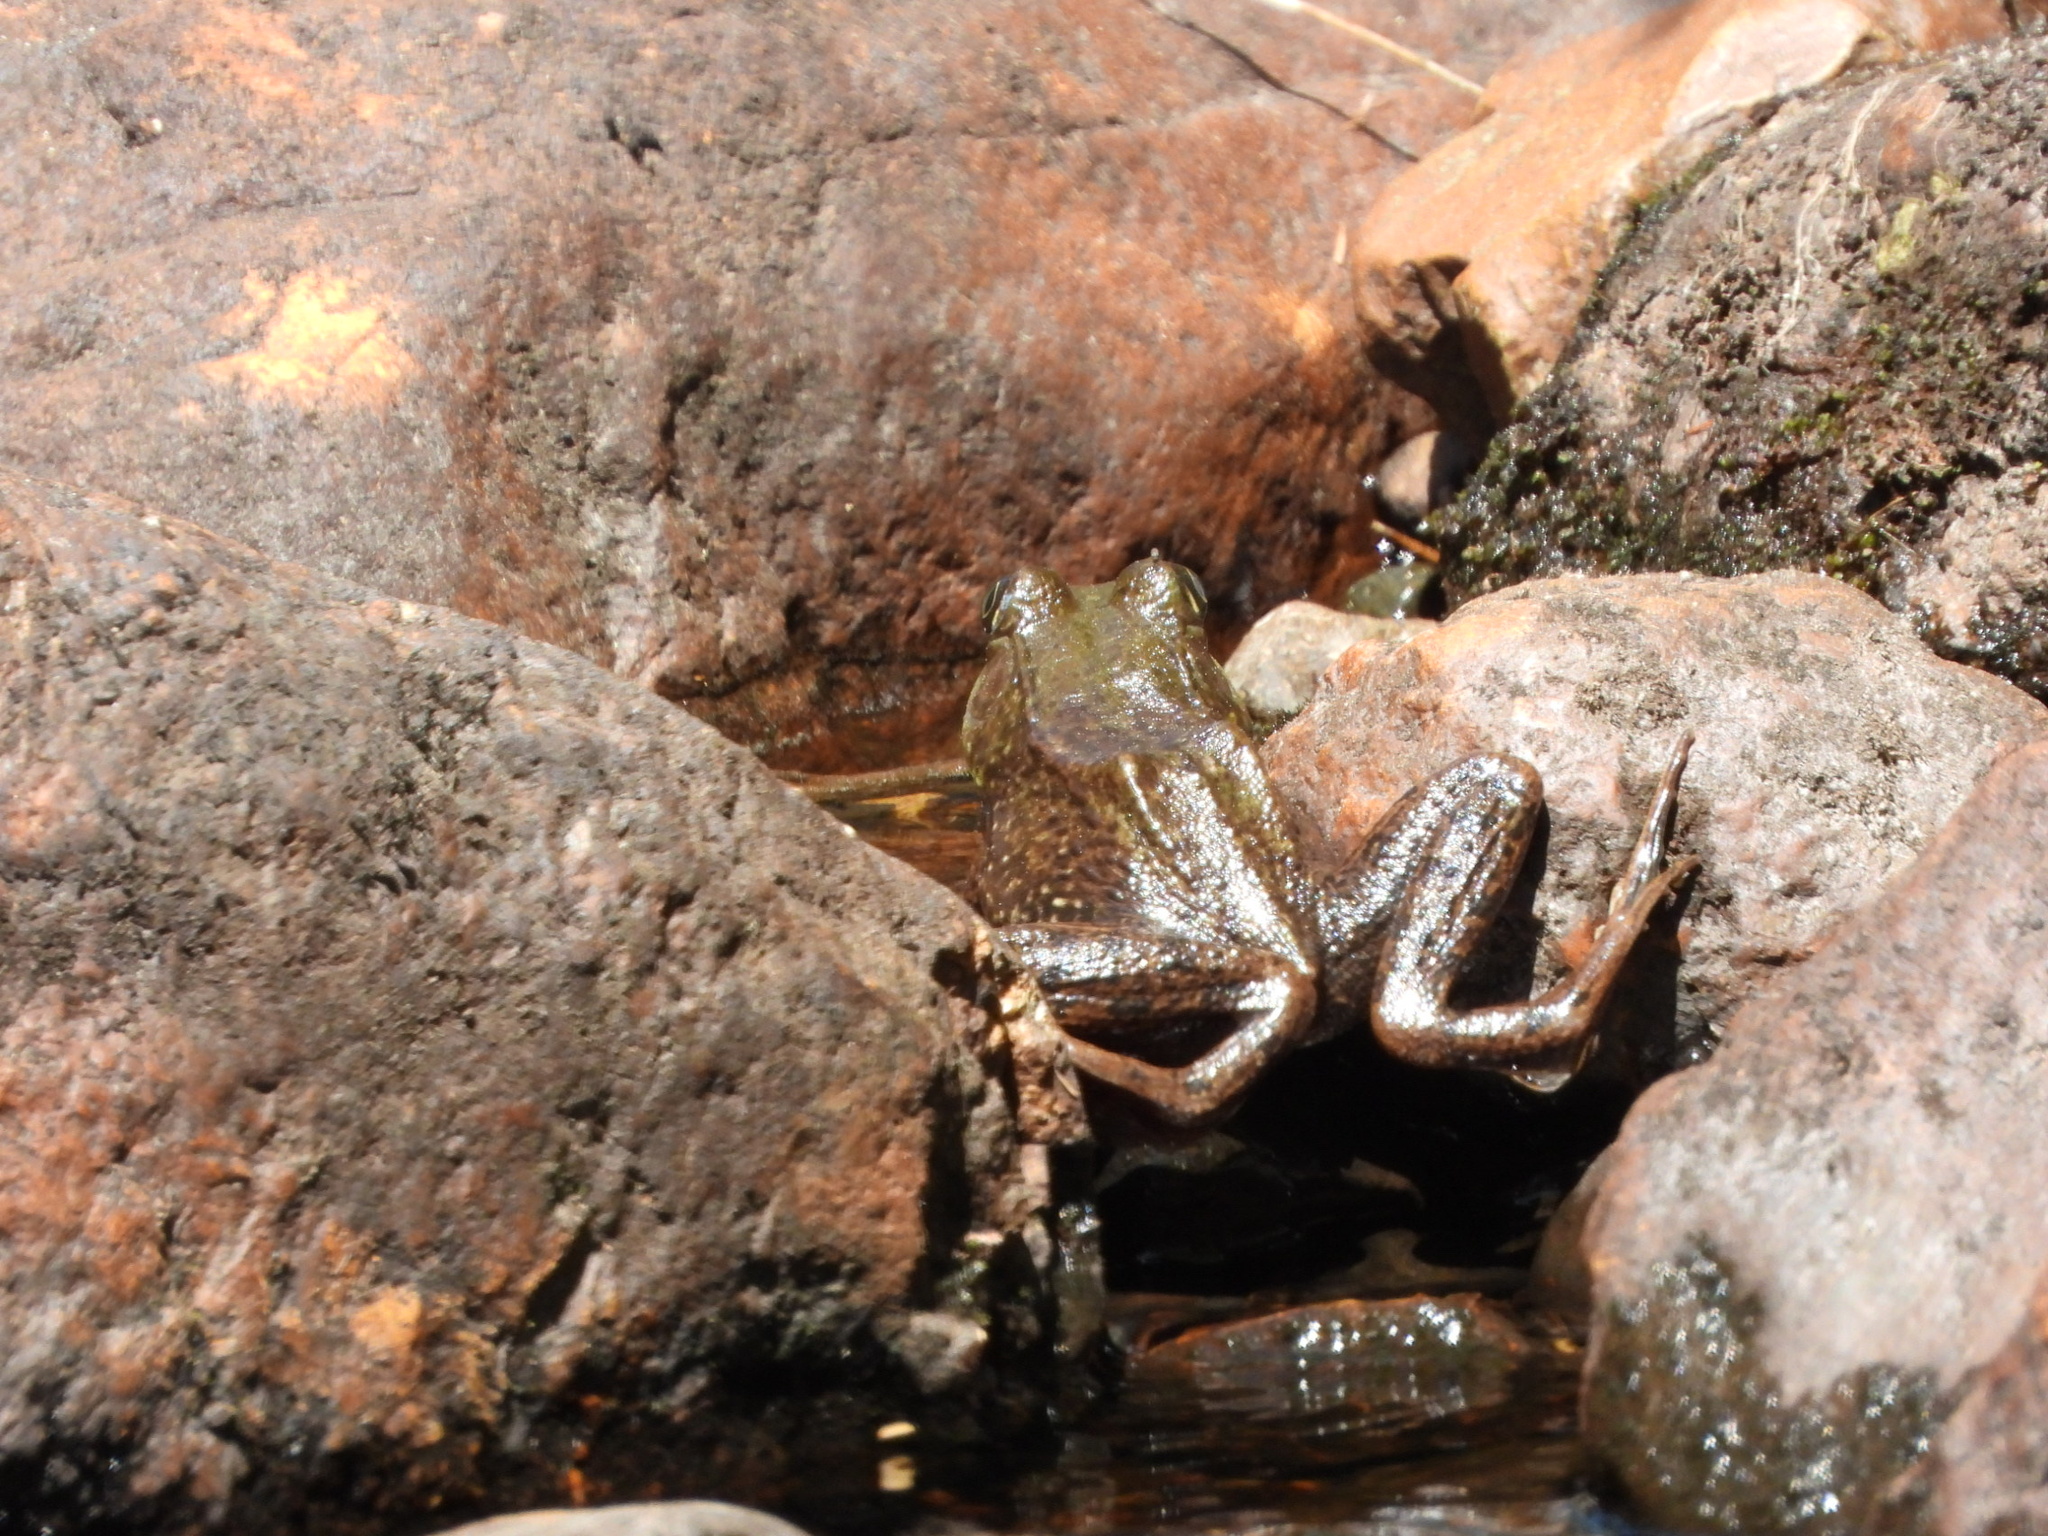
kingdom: Animalia
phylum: Chordata
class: Amphibia
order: Anura
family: Ranidae
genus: Lithobates
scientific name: Lithobates clamitans
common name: Green frog
